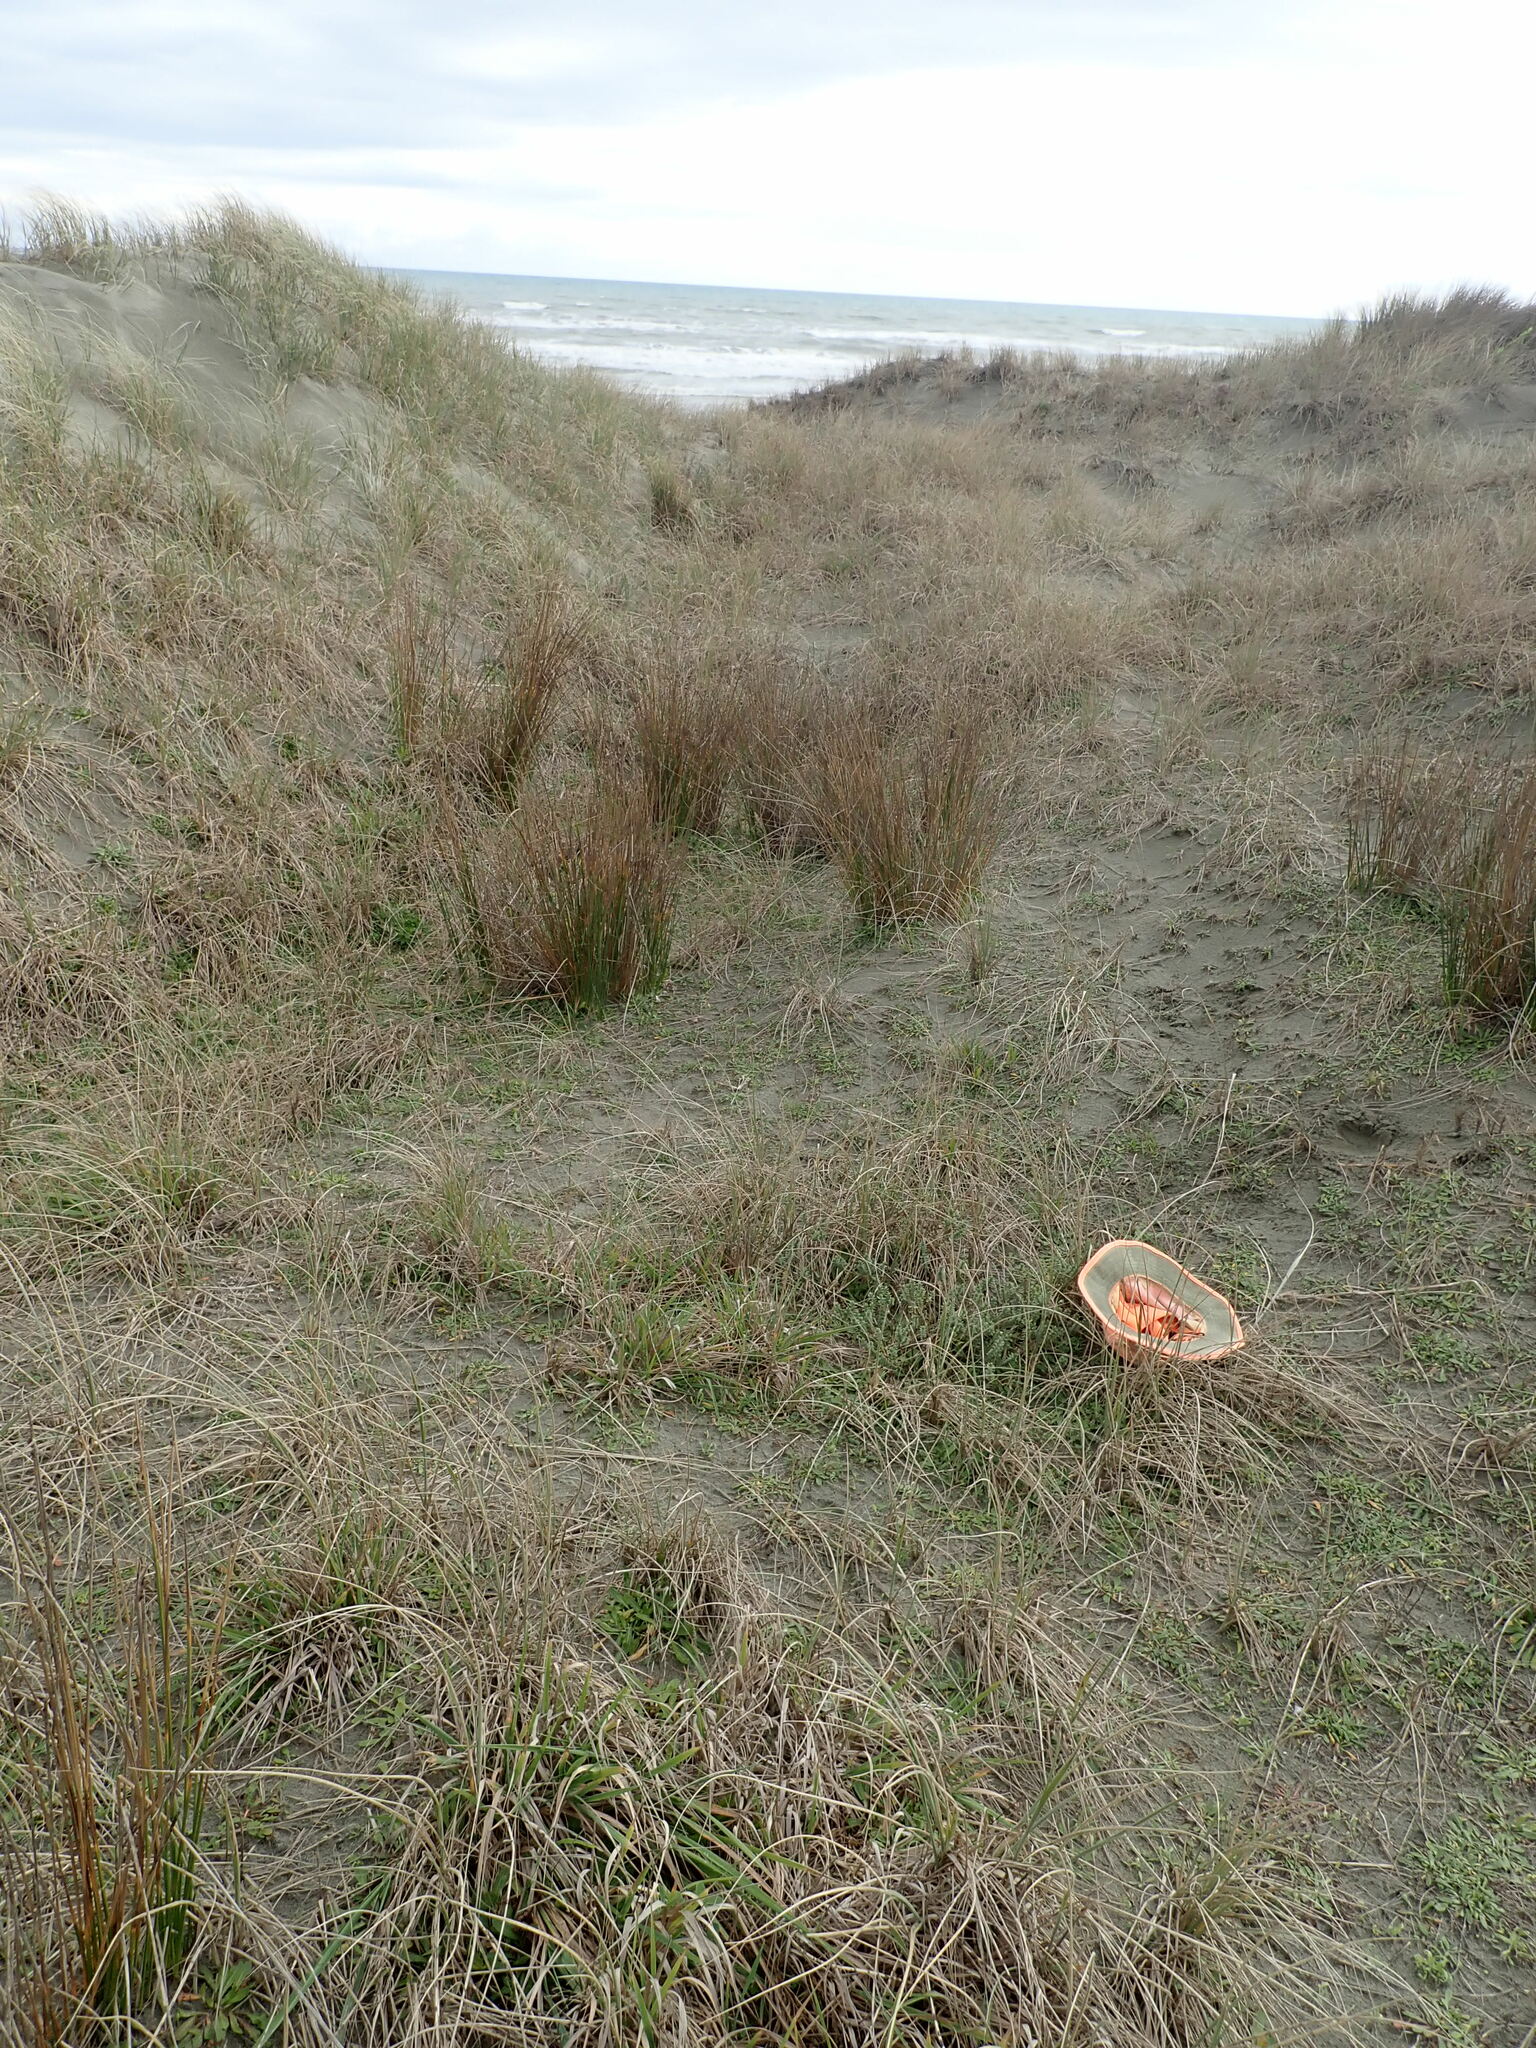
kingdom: Plantae
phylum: Tracheophyta
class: Magnoliopsida
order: Malvales
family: Thymelaeaceae
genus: Pimelea
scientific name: Pimelea villosa
